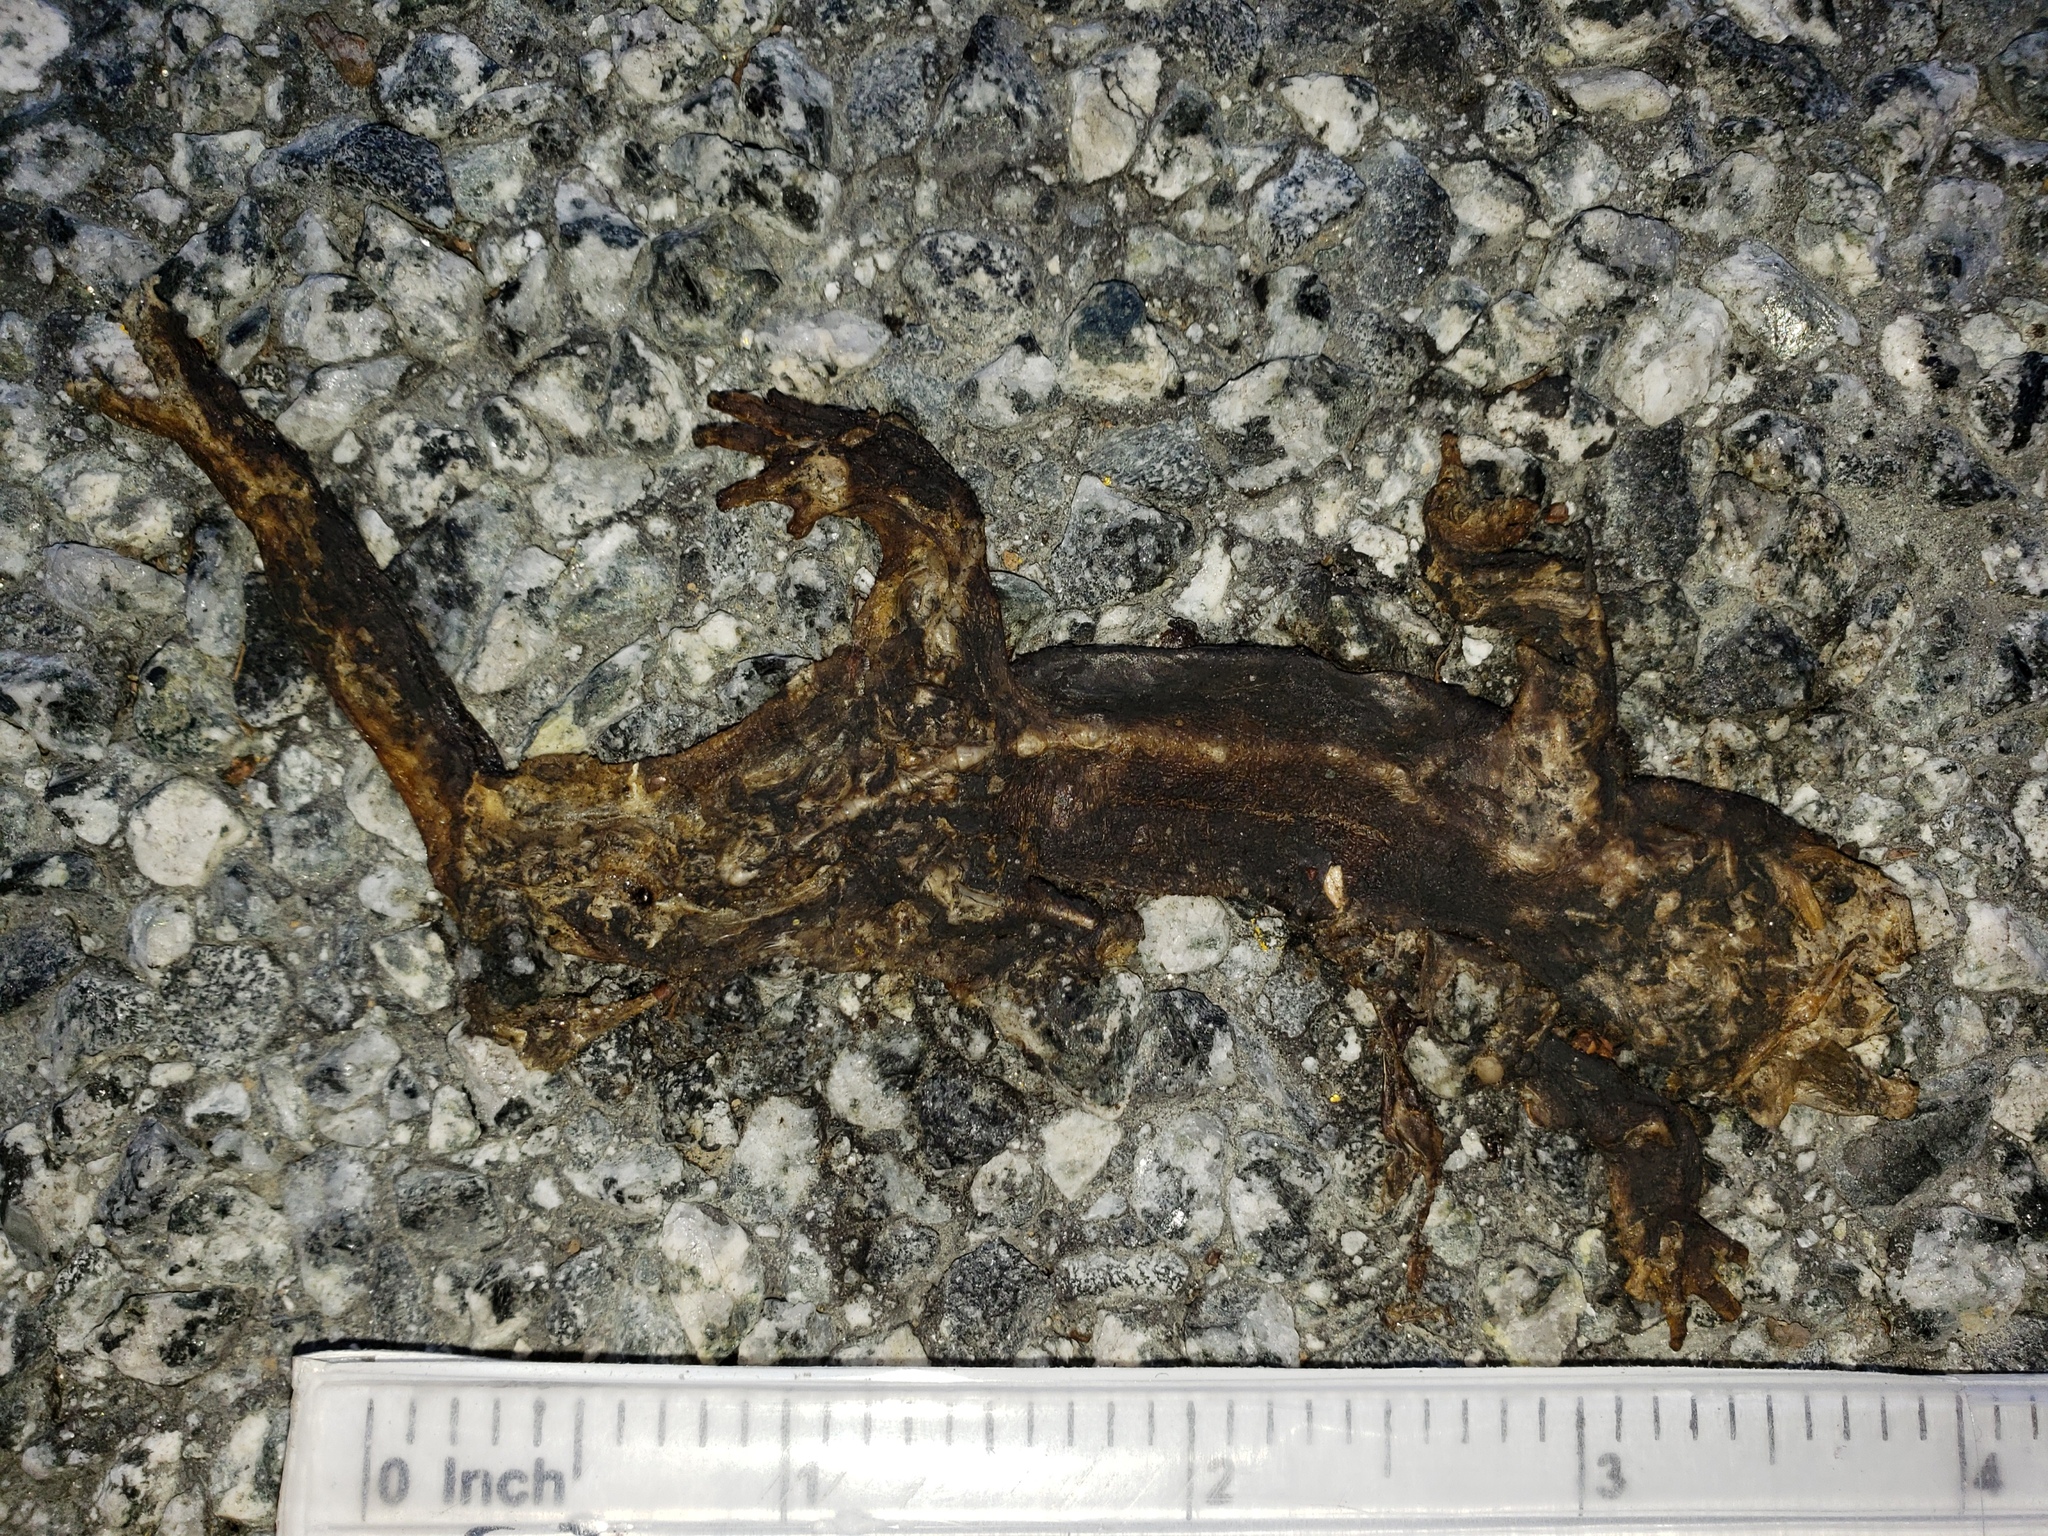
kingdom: Animalia
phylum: Chordata
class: Amphibia
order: Caudata
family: Salamandridae
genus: Taricha
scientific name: Taricha
